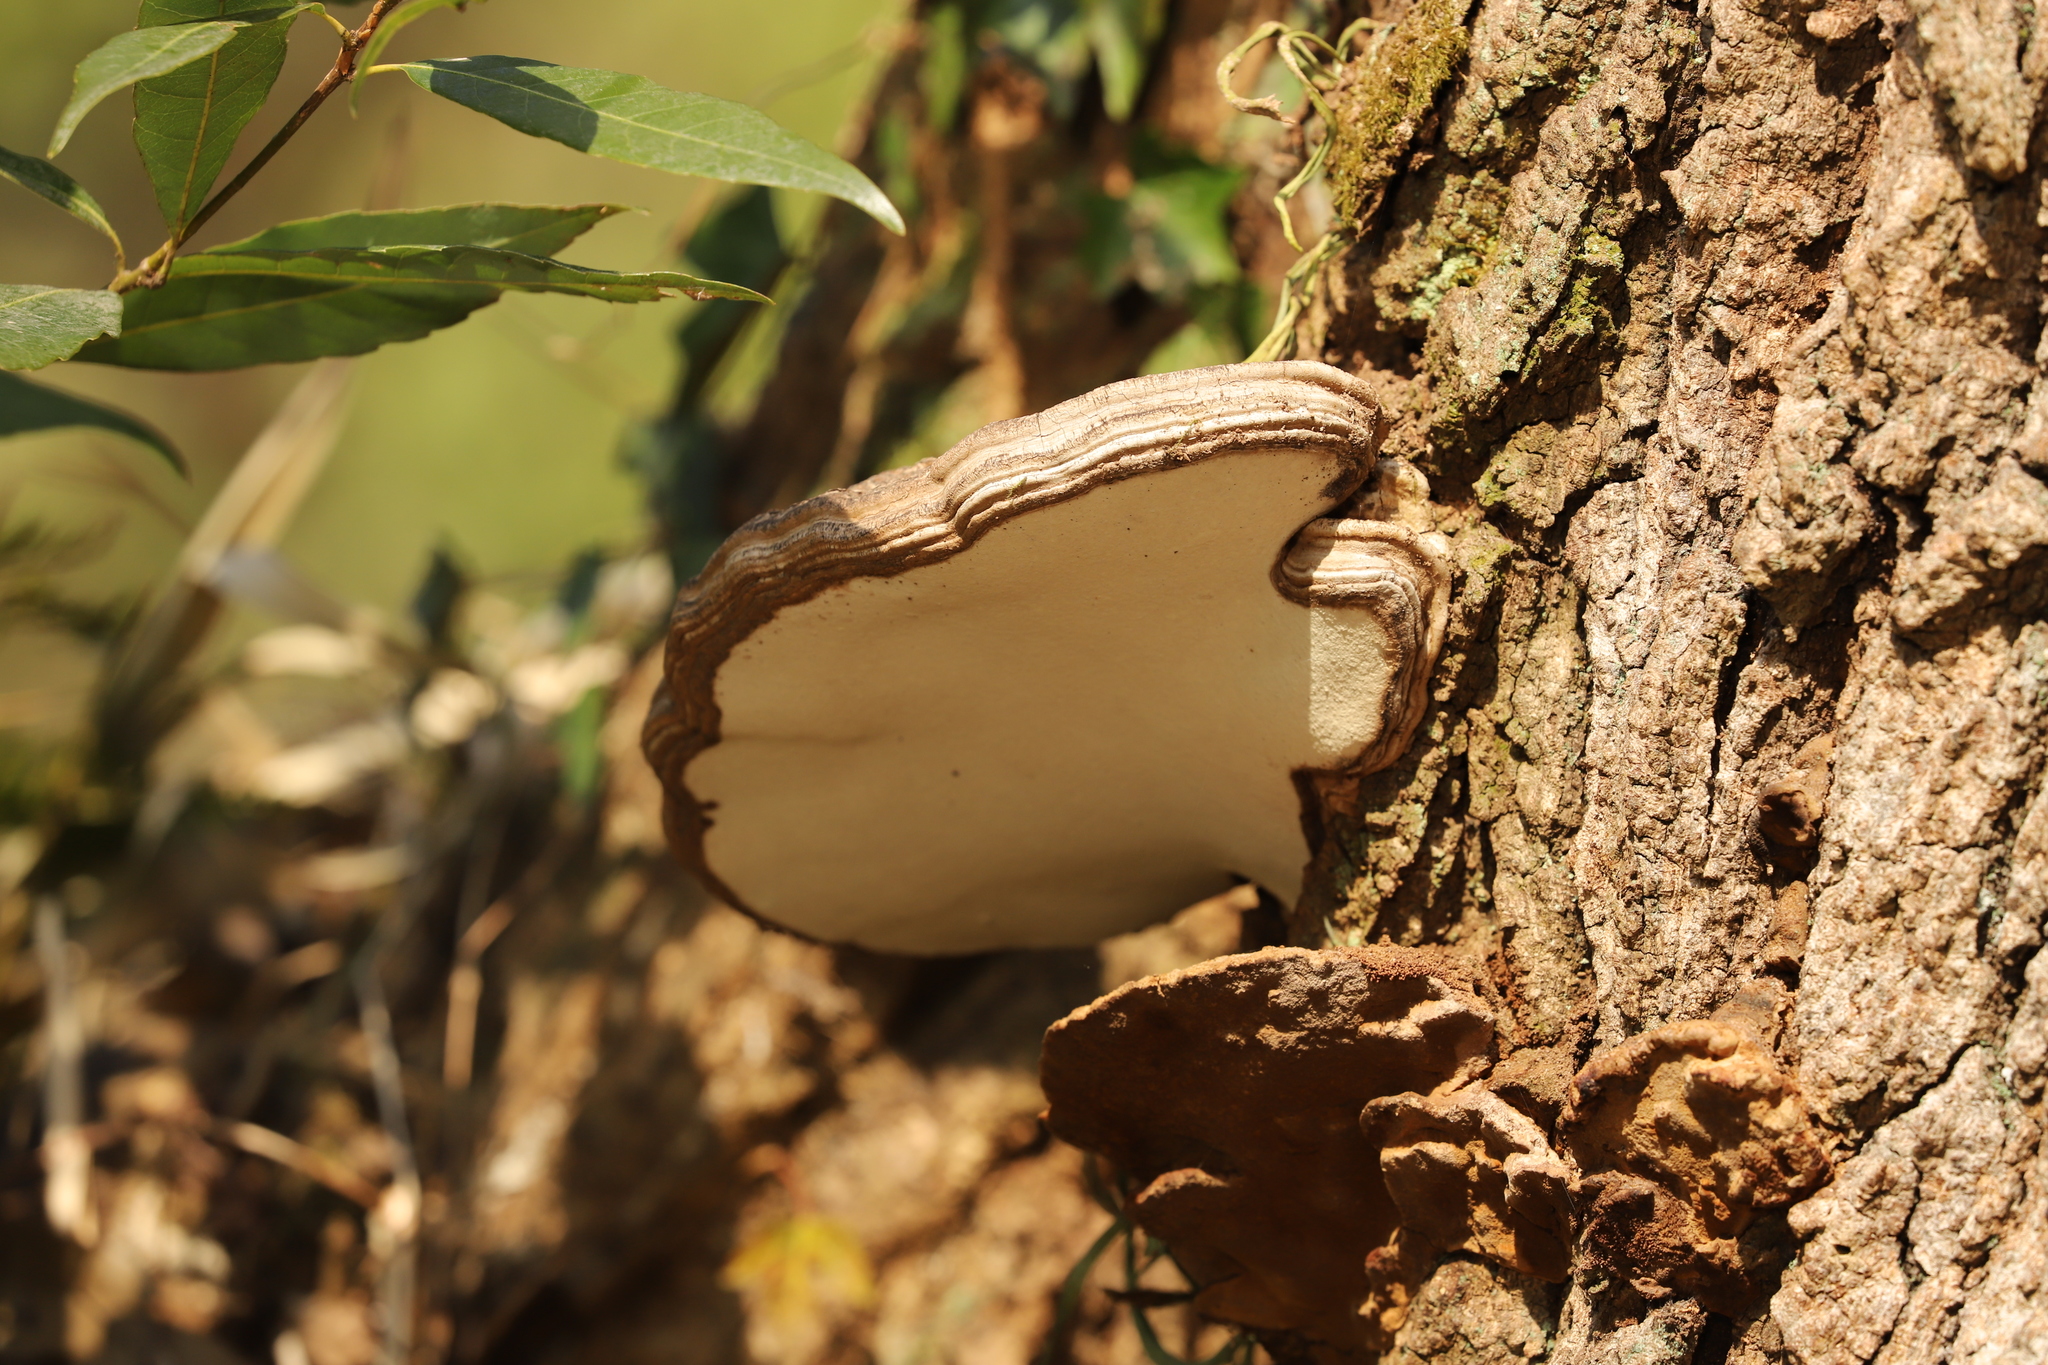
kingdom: Fungi
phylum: Basidiomycota
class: Agaricomycetes
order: Polyporales
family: Polyporaceae
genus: Ganoderma
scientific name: Ganoderma applanatum
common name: Artist's bracket
